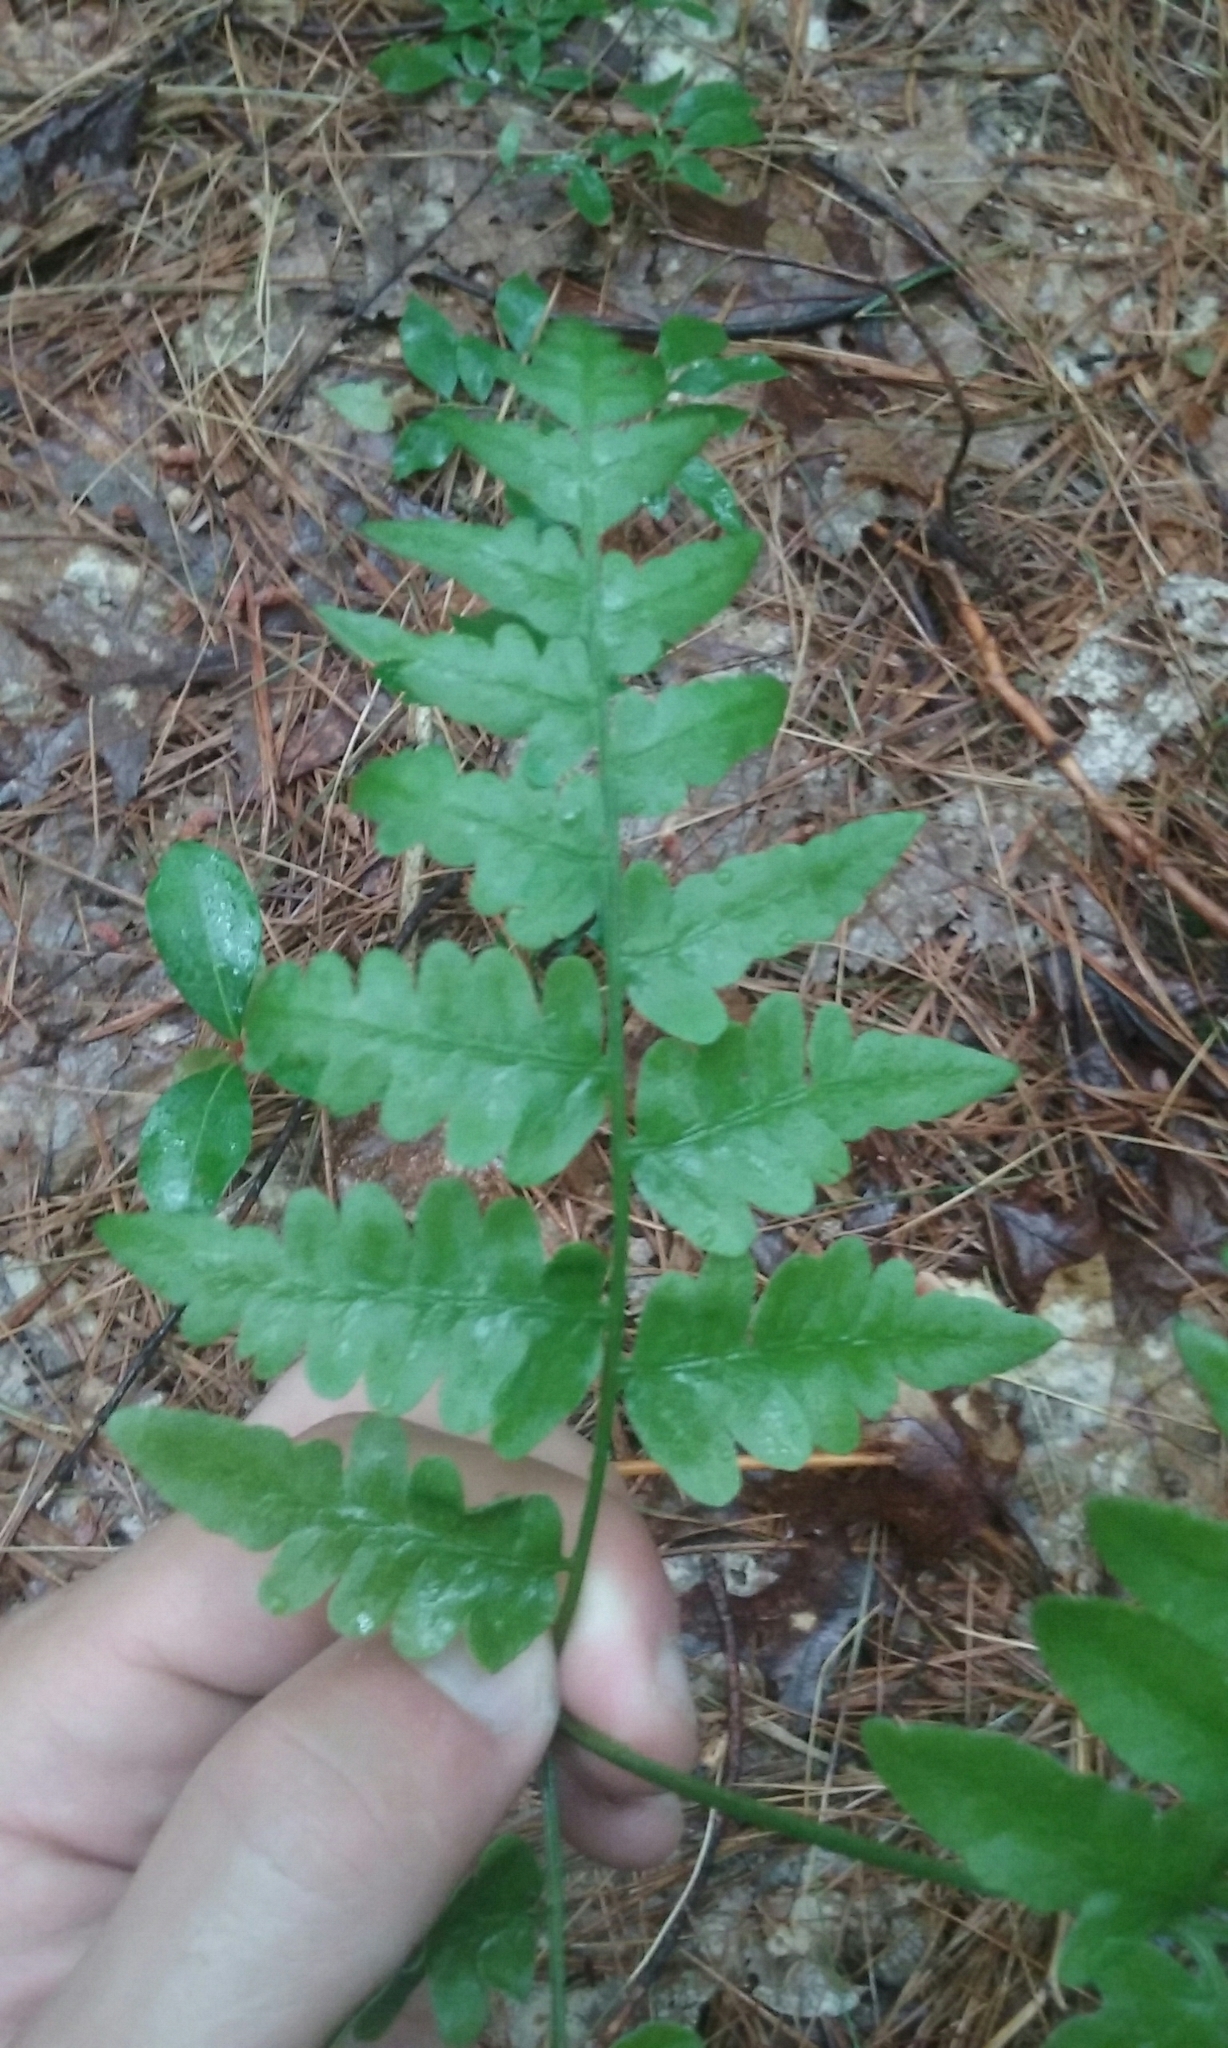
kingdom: Plantae
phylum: Tracheophyta
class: Polypodiopsida
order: Polypodiales
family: Dennstaedtiaceae
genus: Pteridium
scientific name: Pteridium aquilinum
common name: Bracken
